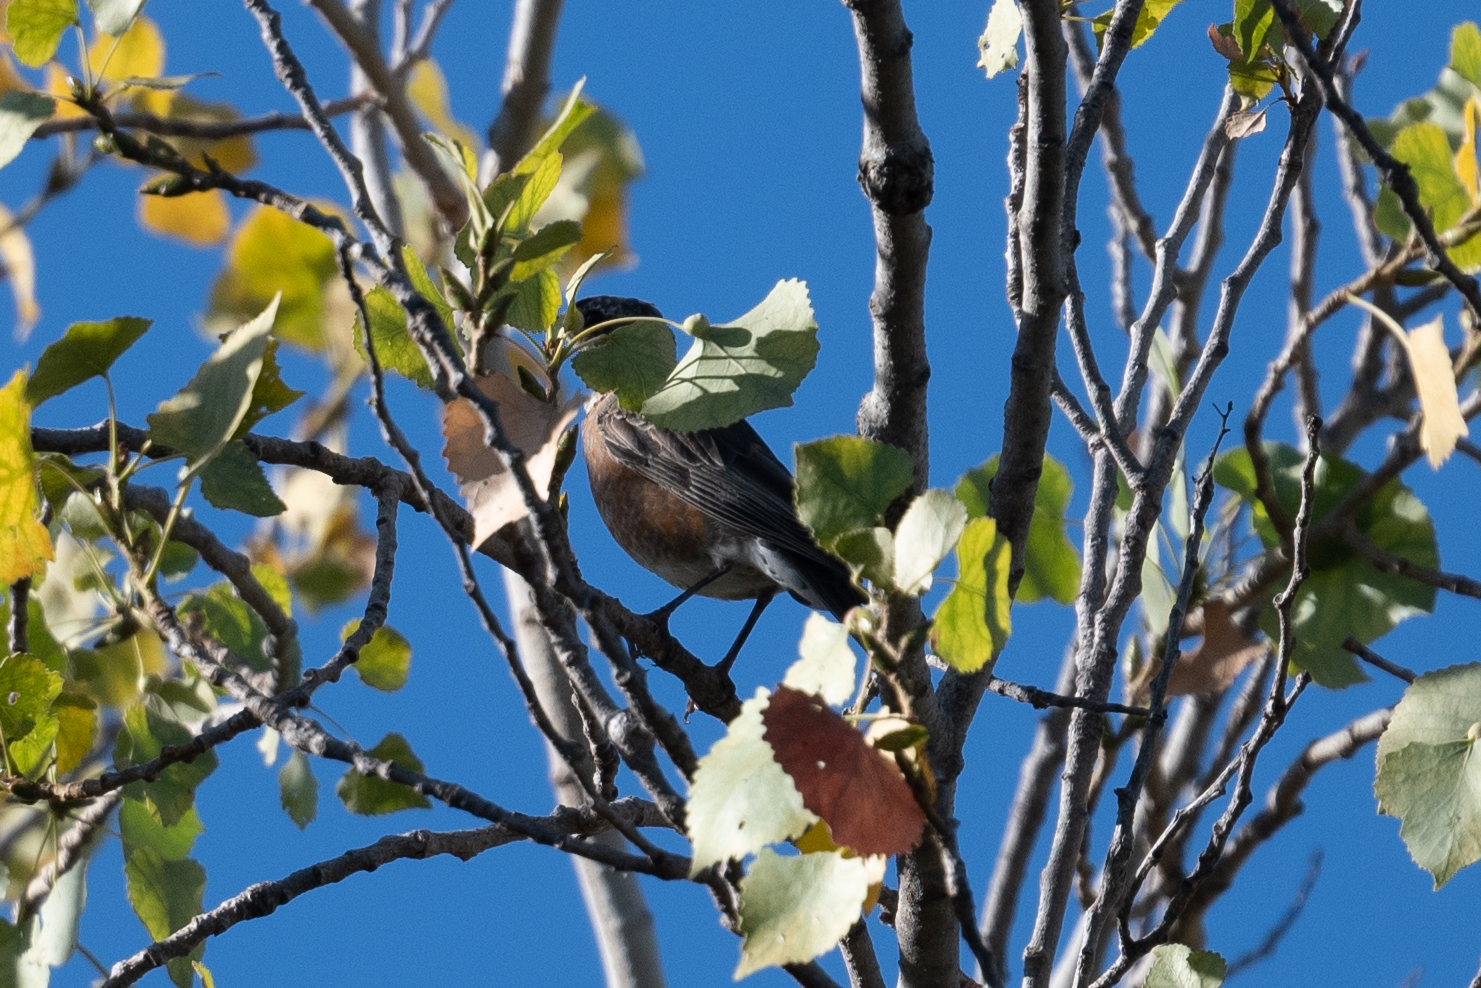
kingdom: Animalia
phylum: Chordata
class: Aves
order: Passeriformes
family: Turdidae
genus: Turdus
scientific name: Turdus migratorius
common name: American robin
